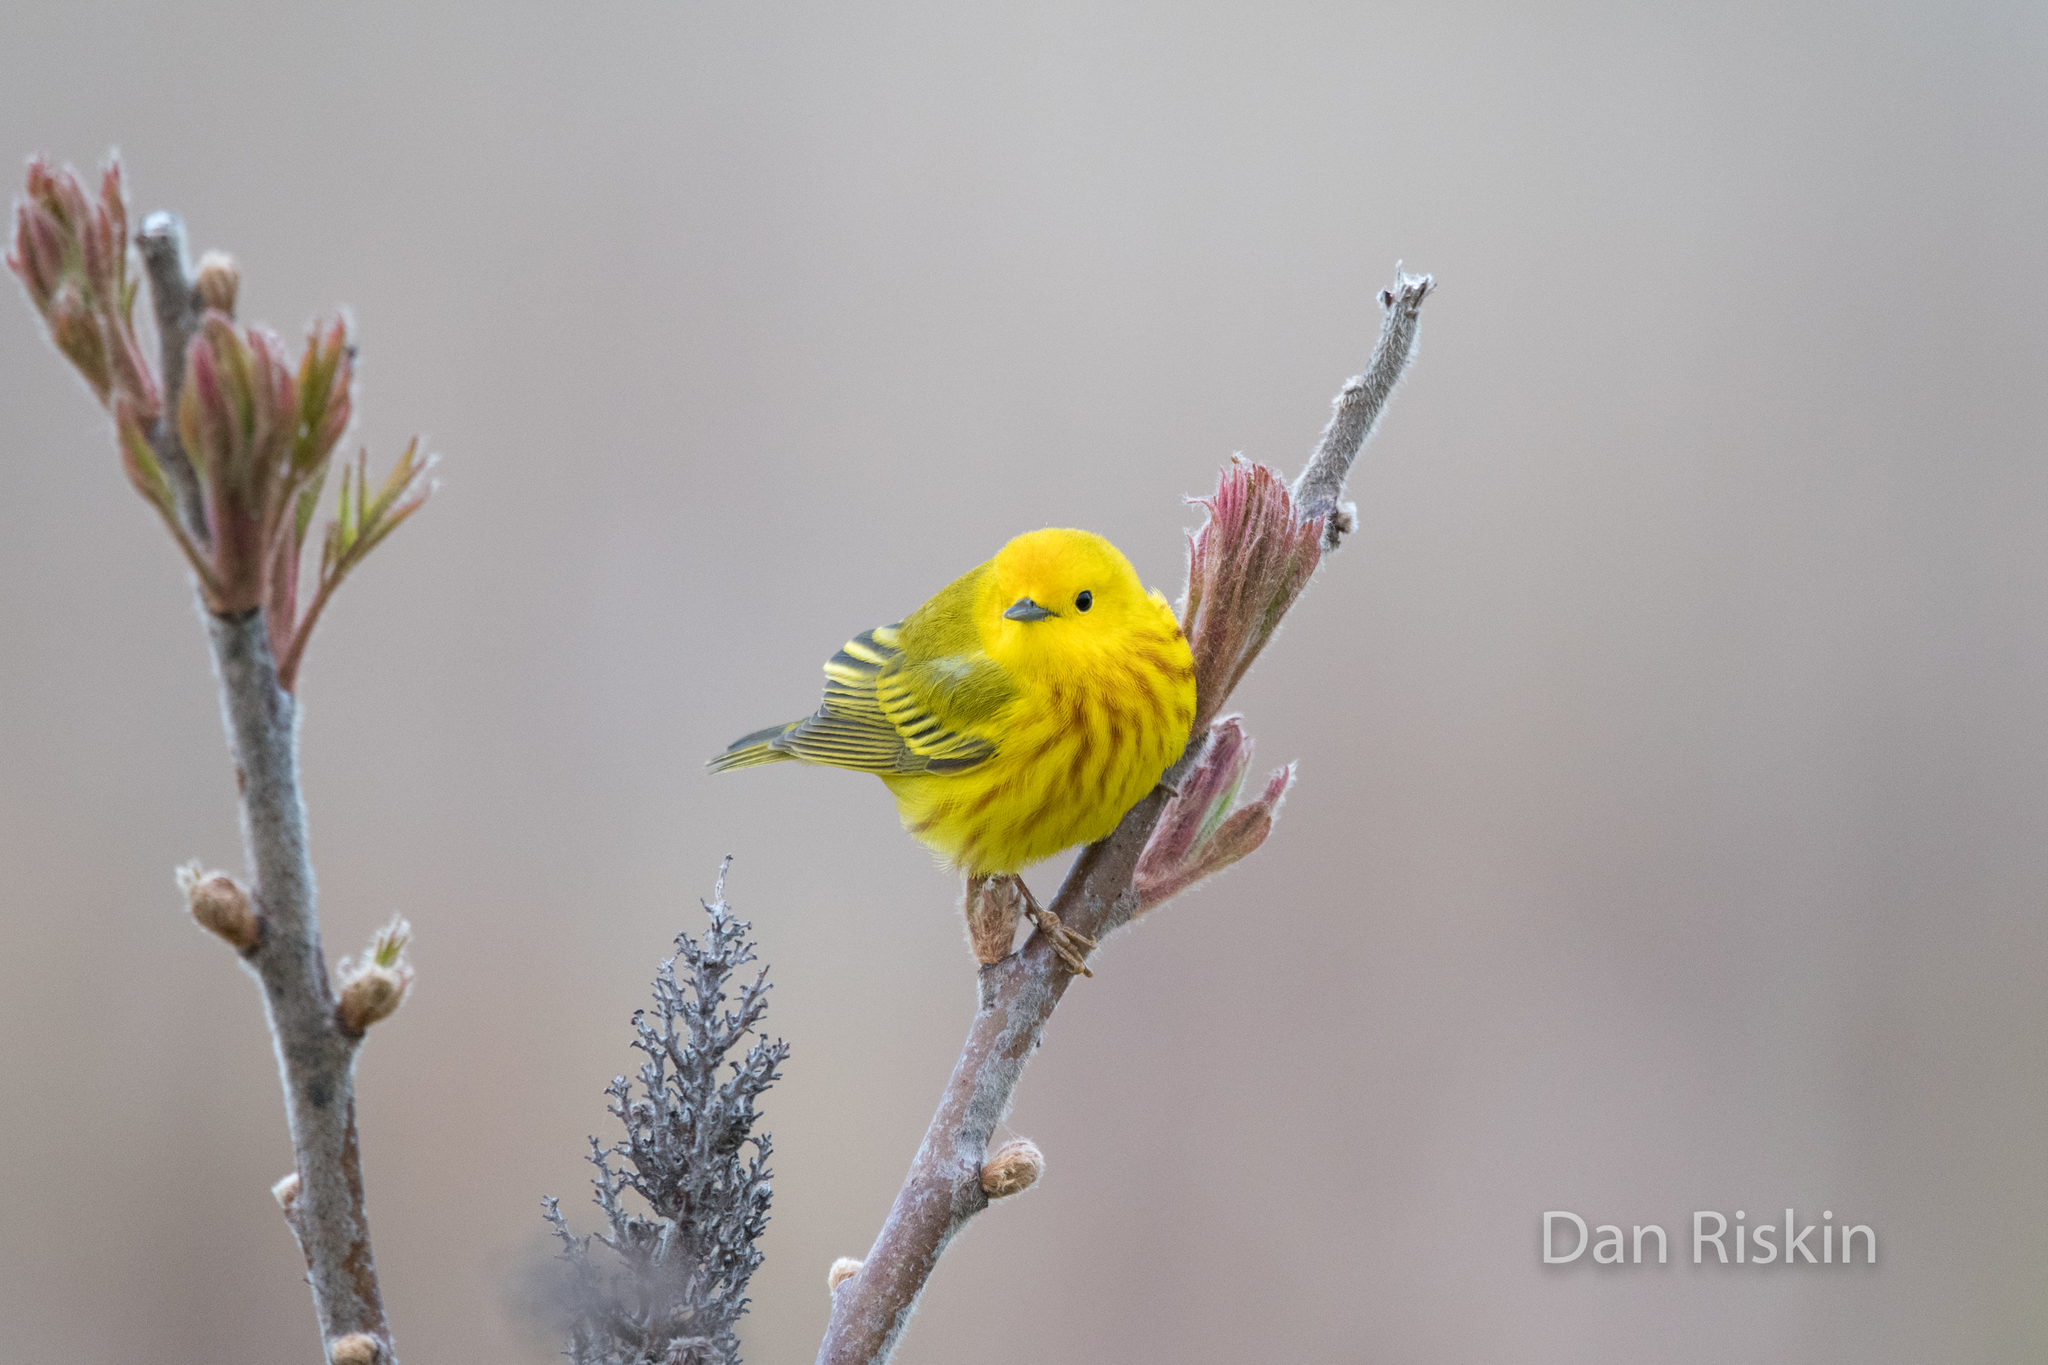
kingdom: Animalia
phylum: Chordata
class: Aves
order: Passeriformes
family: Parulidae
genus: Setophaga
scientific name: Setophaga petechia
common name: Yellow warbler
